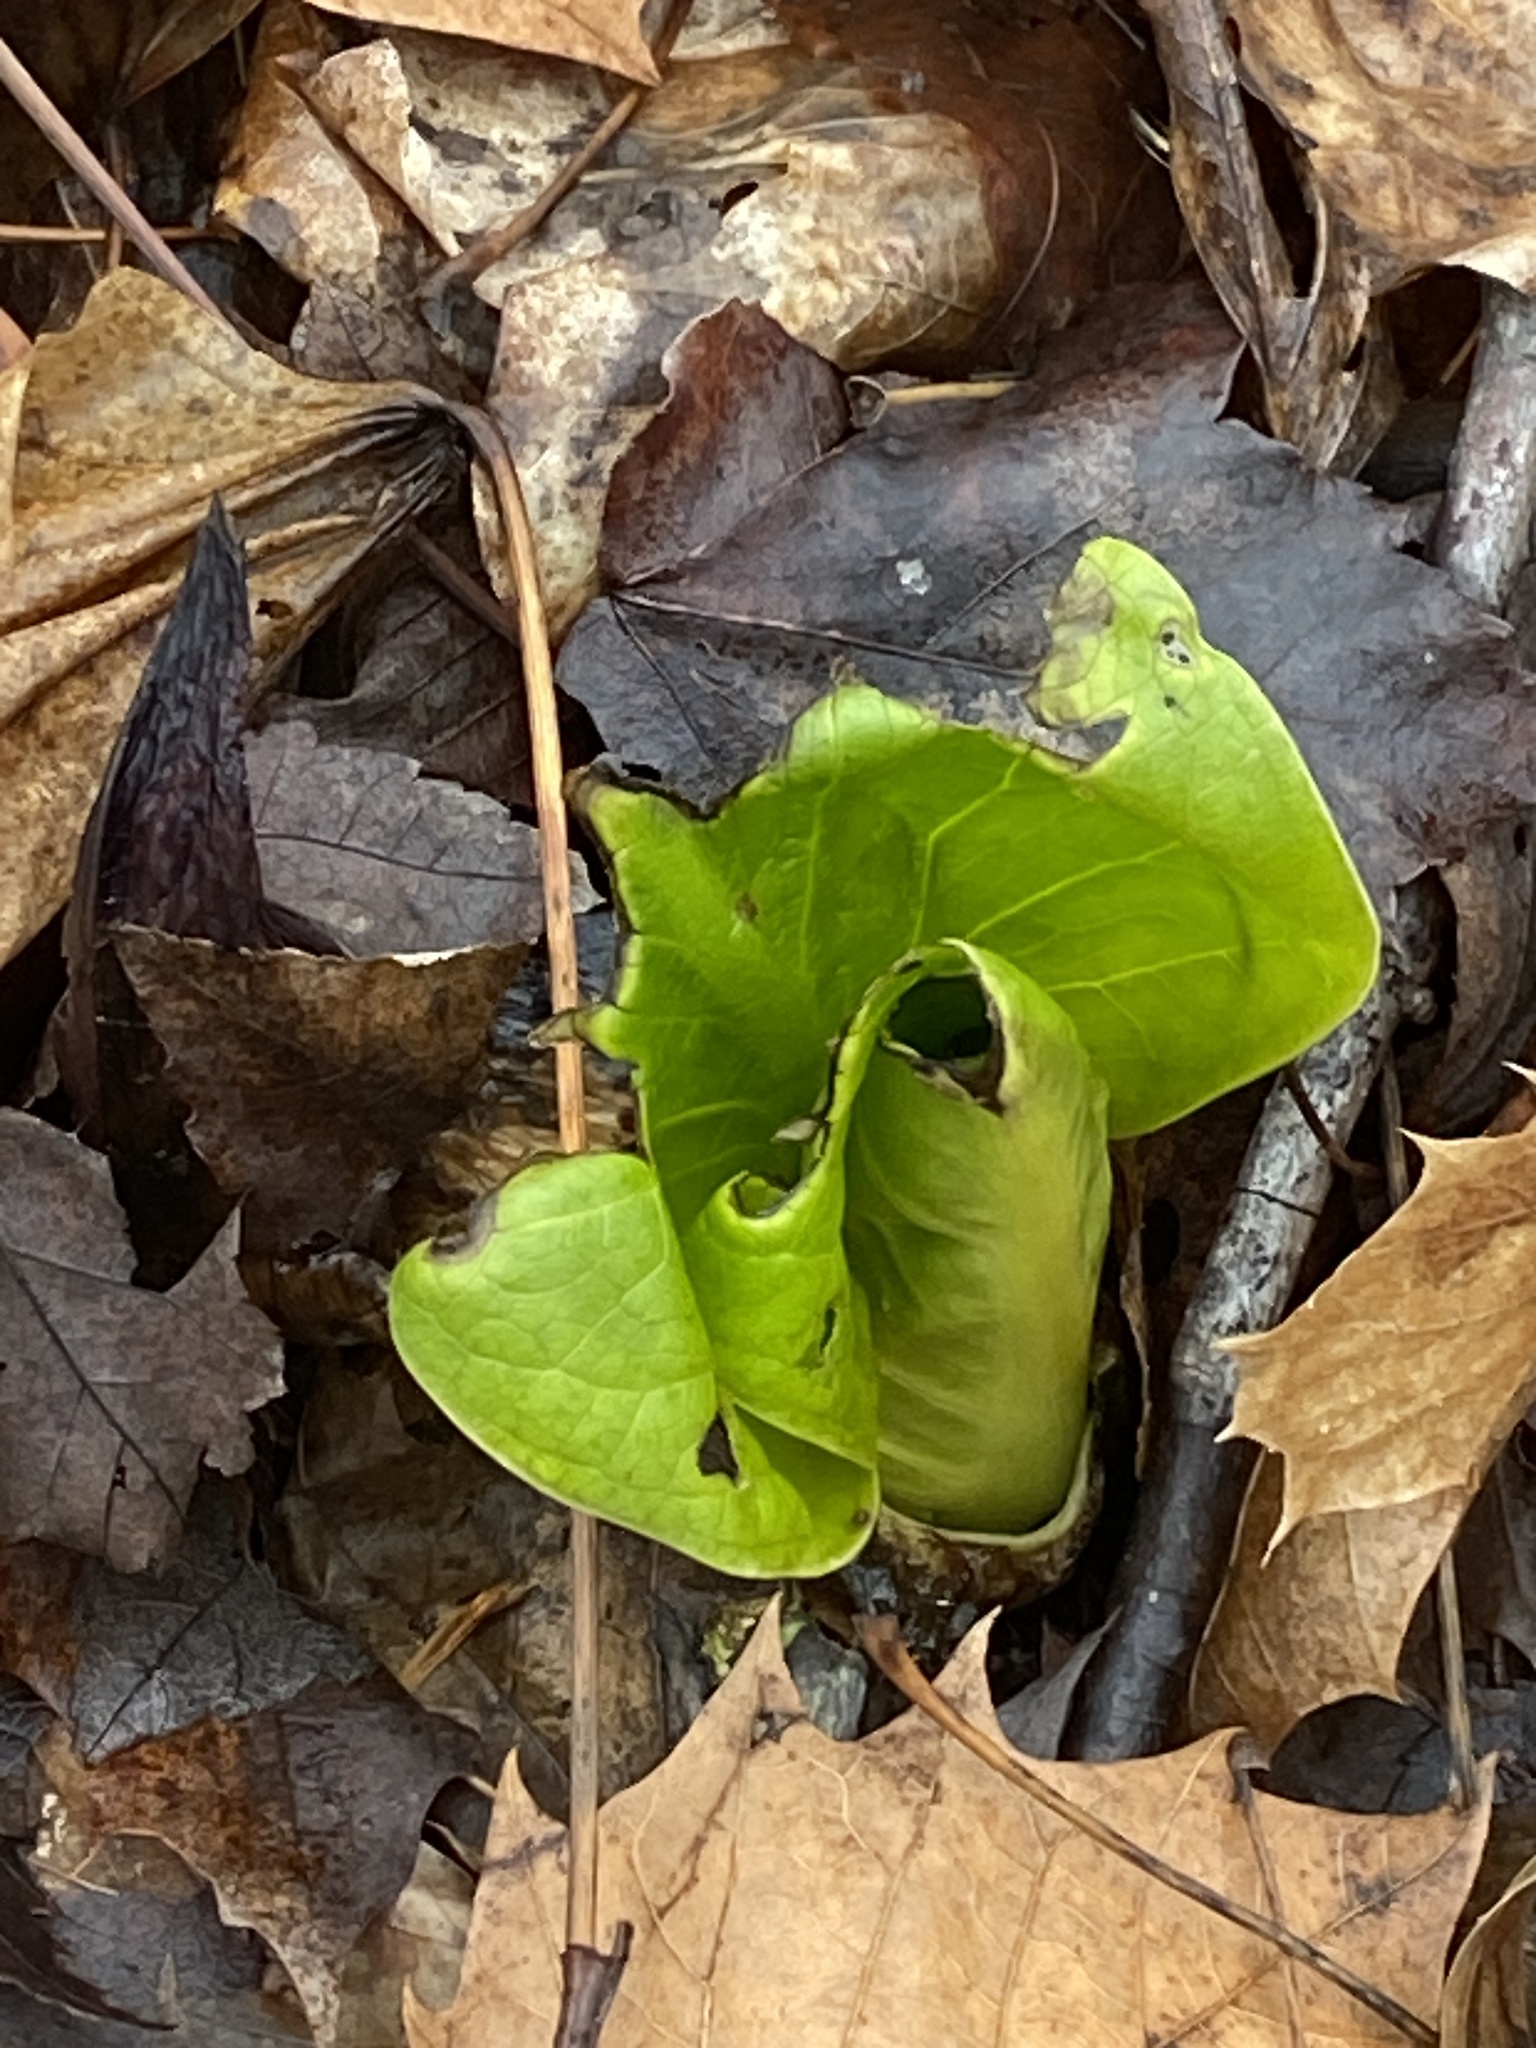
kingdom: Plantae
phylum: Tracheophyta
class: Liliopsida
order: Alismatales
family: Araceae
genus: Symplocarpus
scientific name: Symplocarpus foetidus
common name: Eastern skunk cabbage
